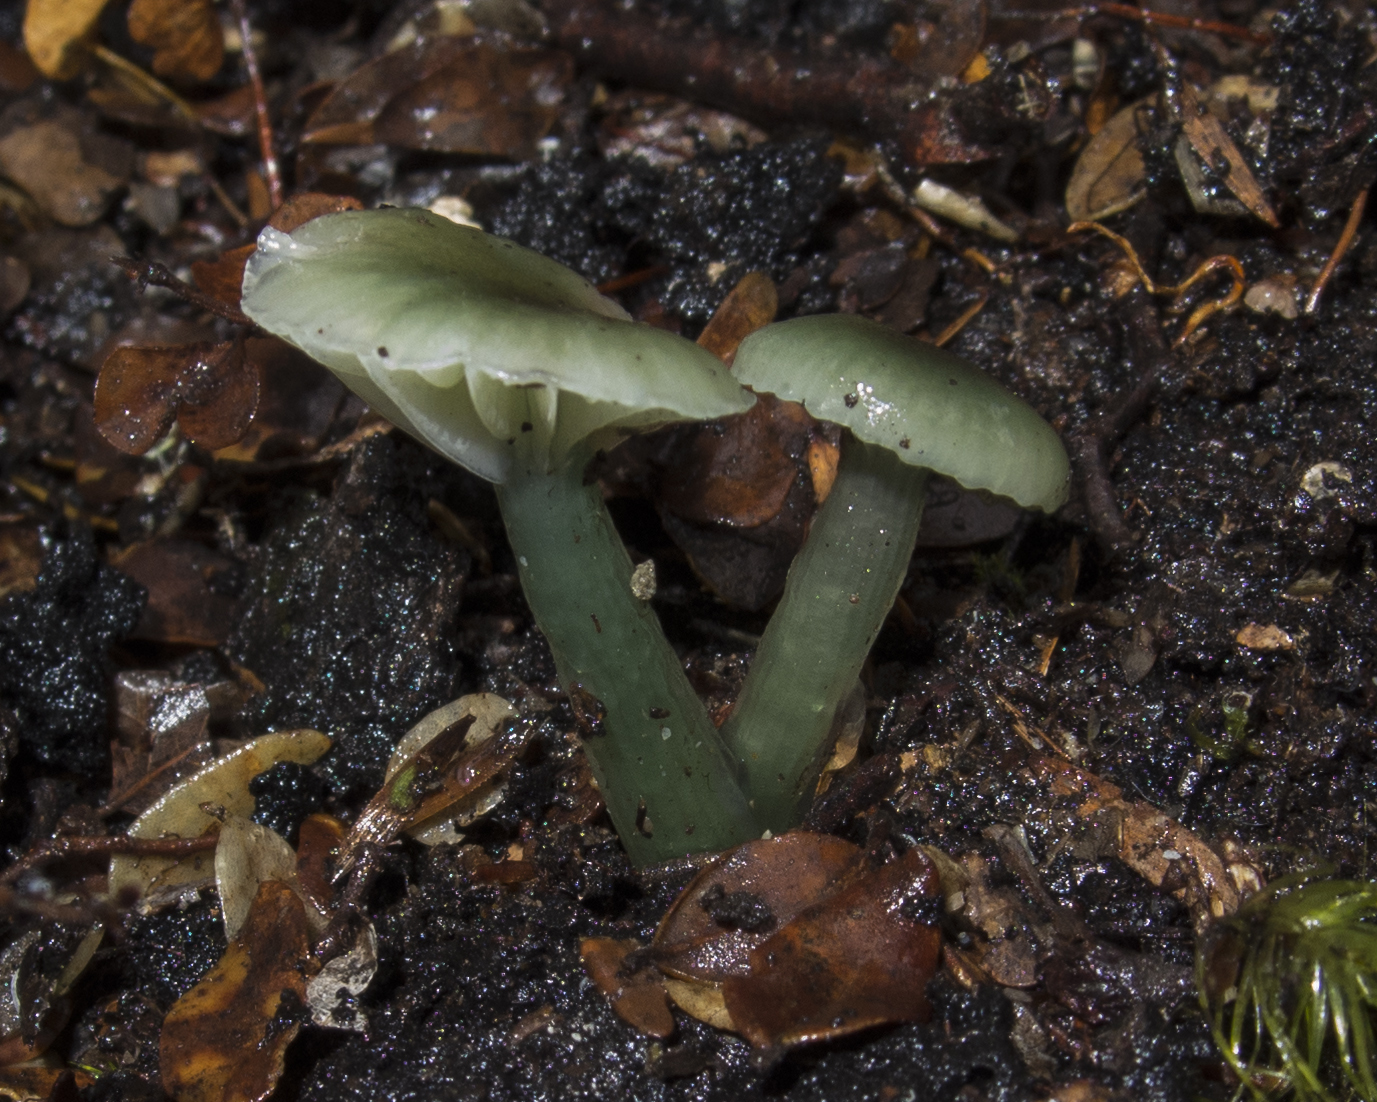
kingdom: Fungi
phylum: Basidiomycota
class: Agaricomycetes
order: Agaricales
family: Hygrophoraceae
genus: Gliophorus
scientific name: Gliophorus graminicolor
